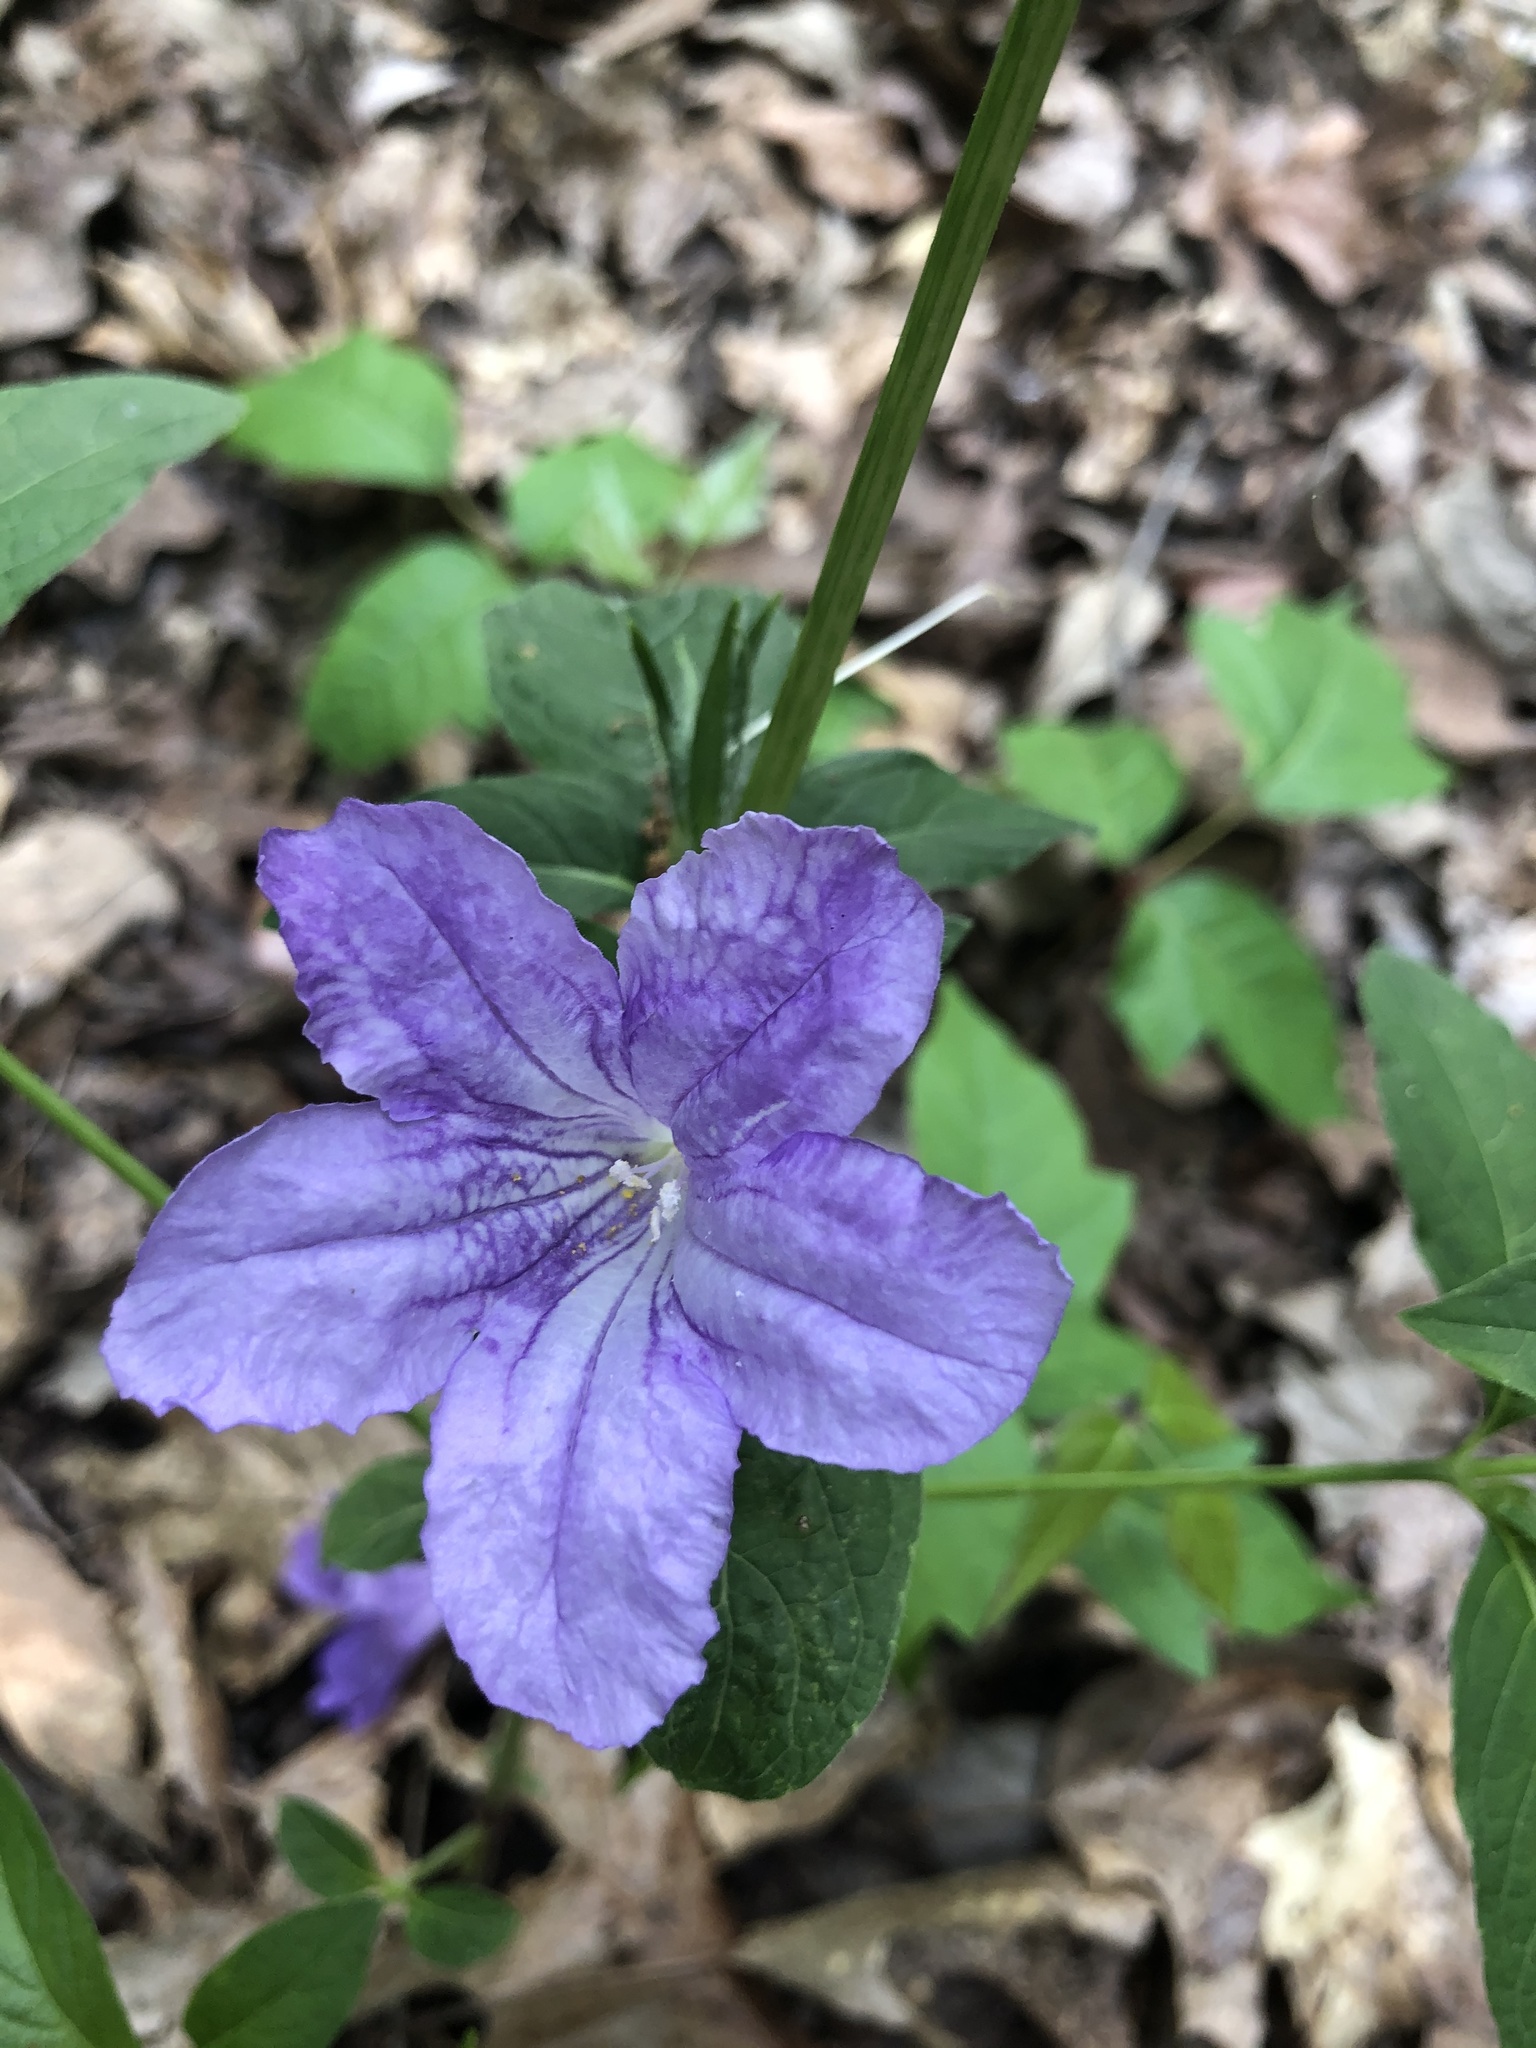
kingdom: Plantae
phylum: Tracheophyta
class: Magnoliopsida
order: Lamiales
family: Acanthaceae
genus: Ruellia
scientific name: Ruellia strepens
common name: Limestone wild petunia
